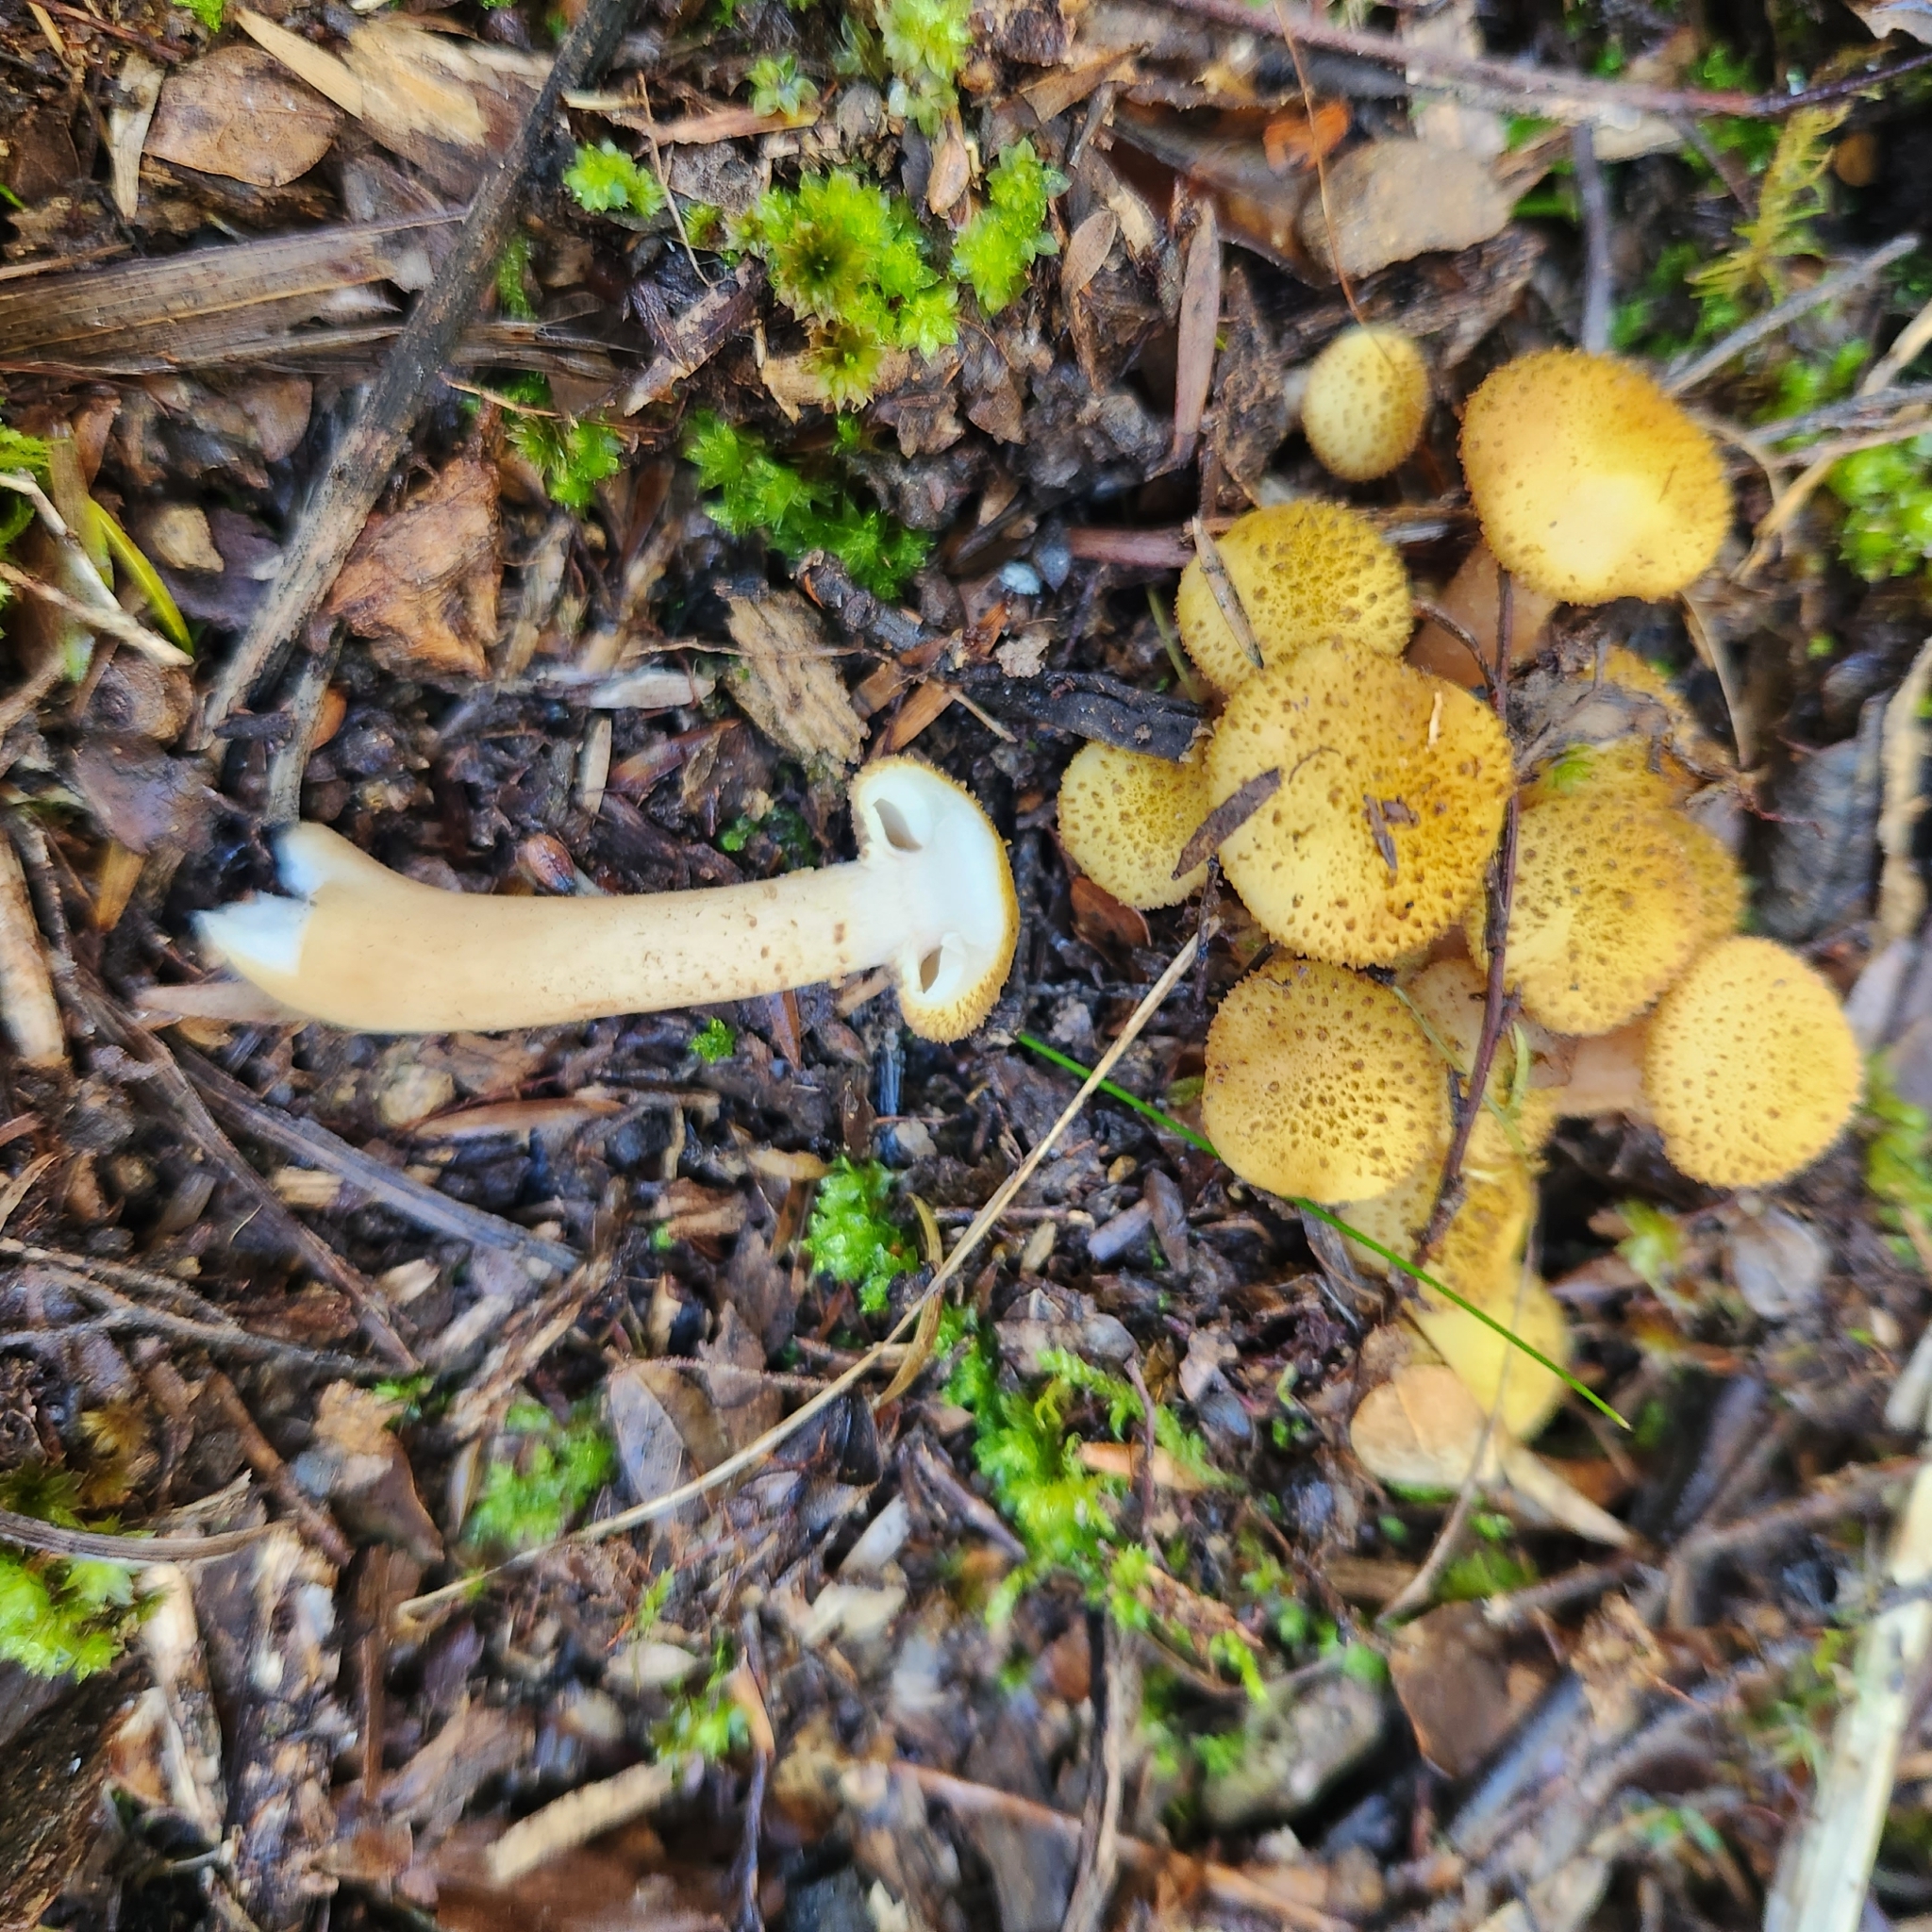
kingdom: Fungi
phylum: Basidiomycota
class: Agaricomycetes
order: Agaricales
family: Physalacriaceae
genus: Armillaria
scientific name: Armillaria limonea
